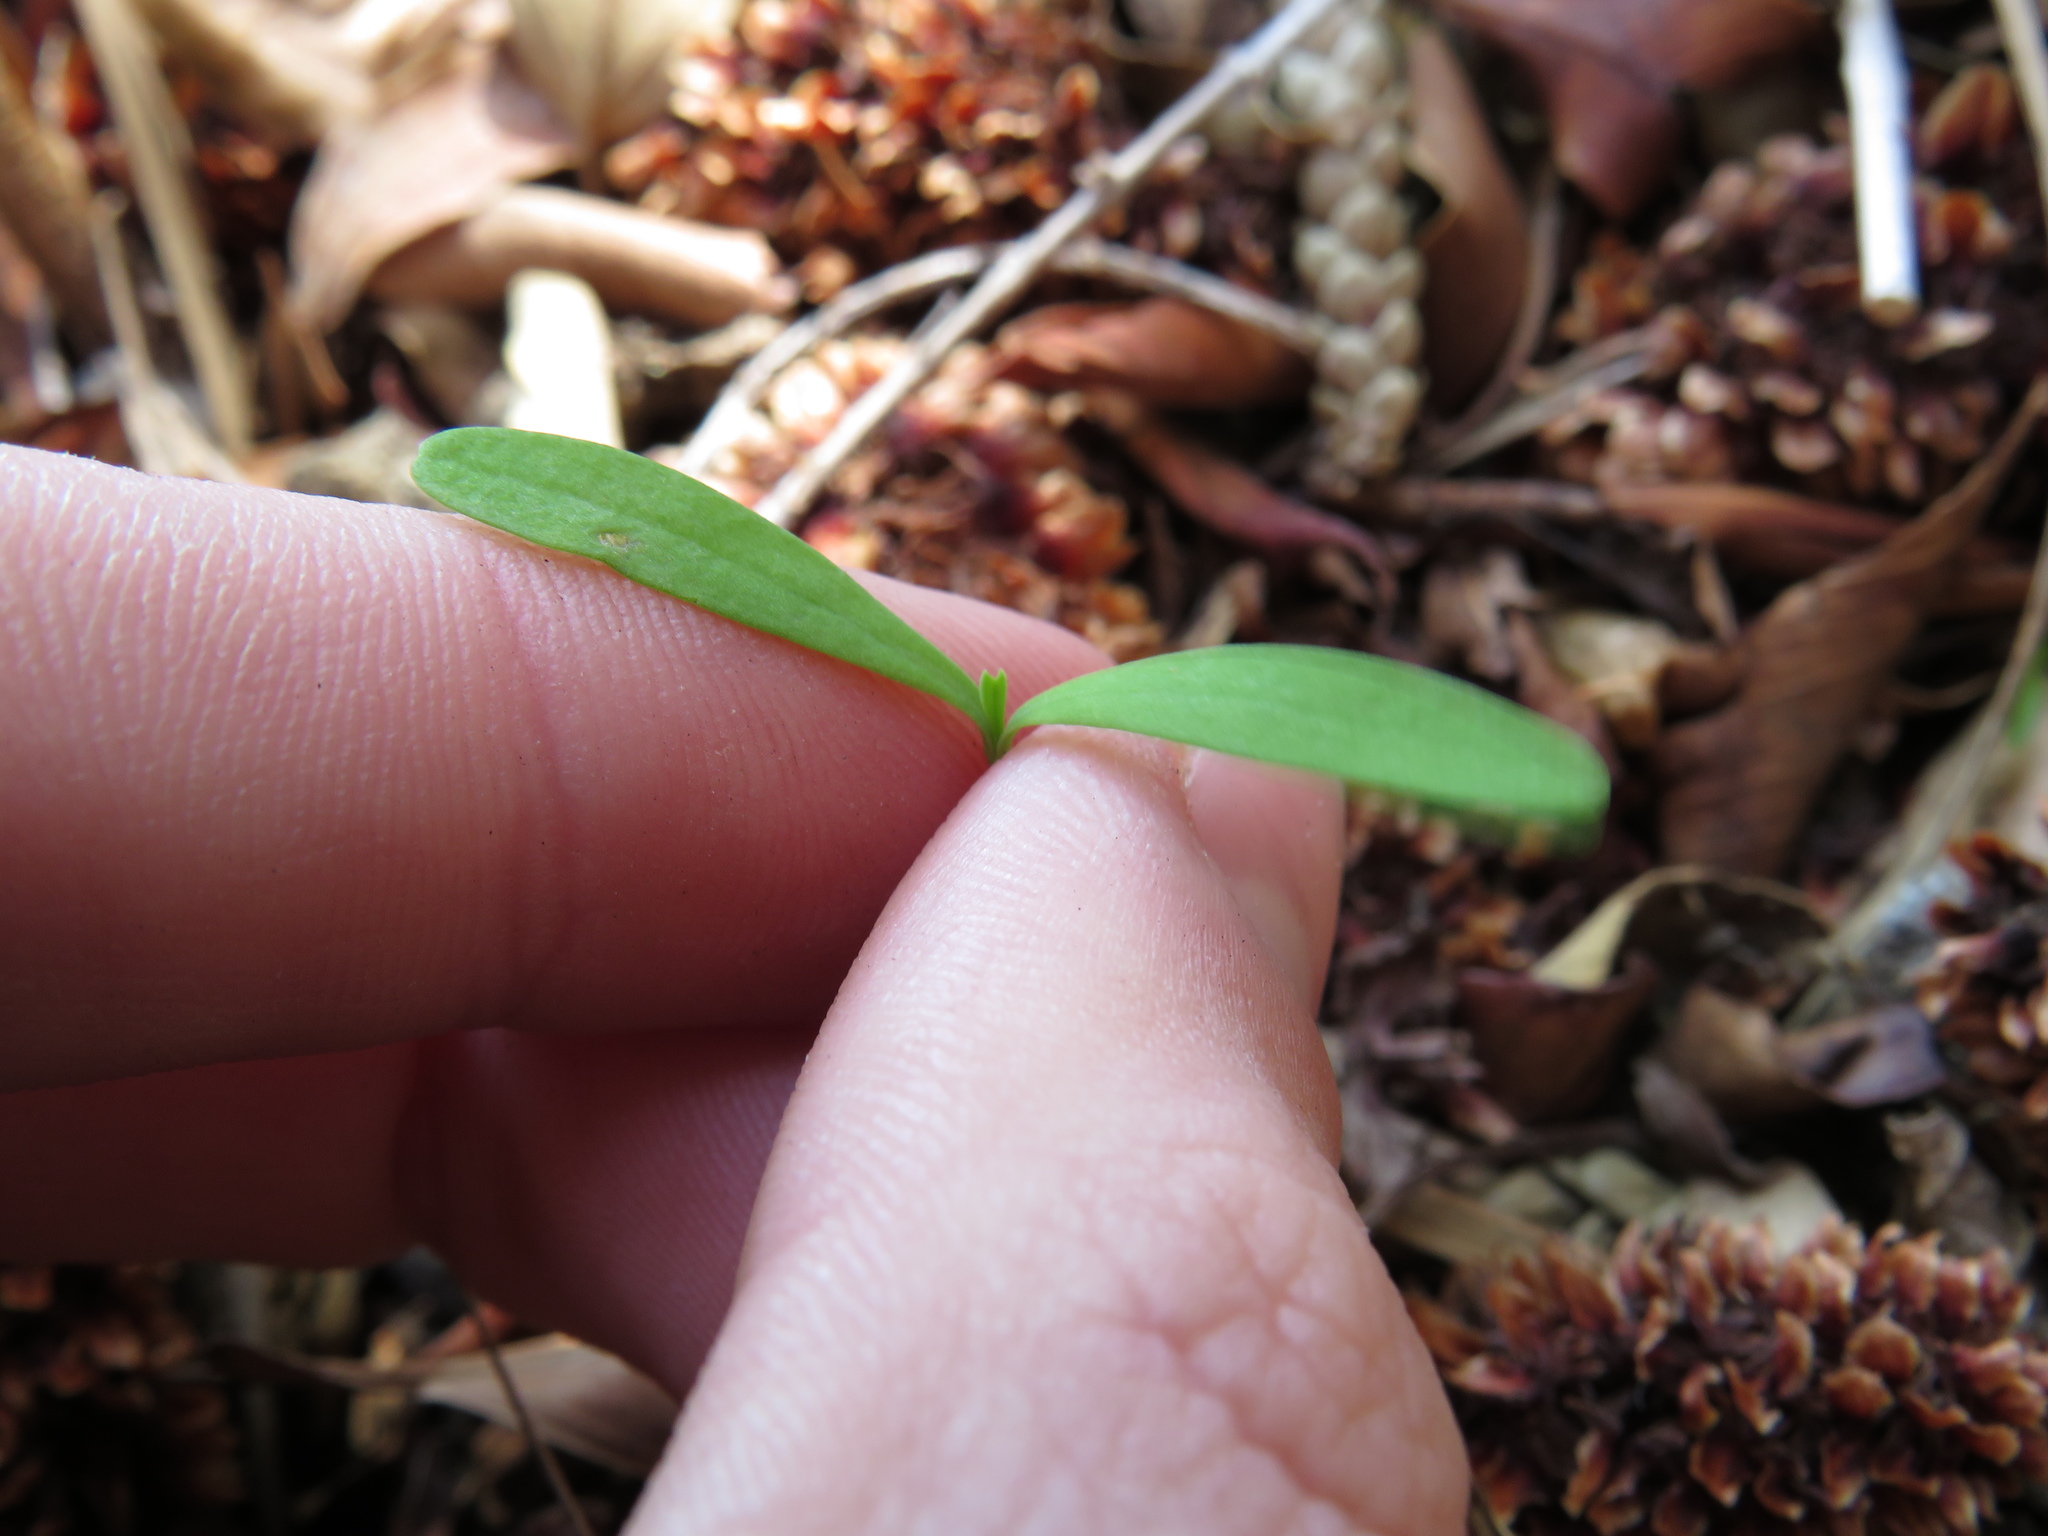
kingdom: Plantae
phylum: Tracheophyta
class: Magnoliopsida
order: Malpighiales
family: Euphorbiaceae
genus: Euphorbia
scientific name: Euphorbia terracina
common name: Geraldton carnation weed
